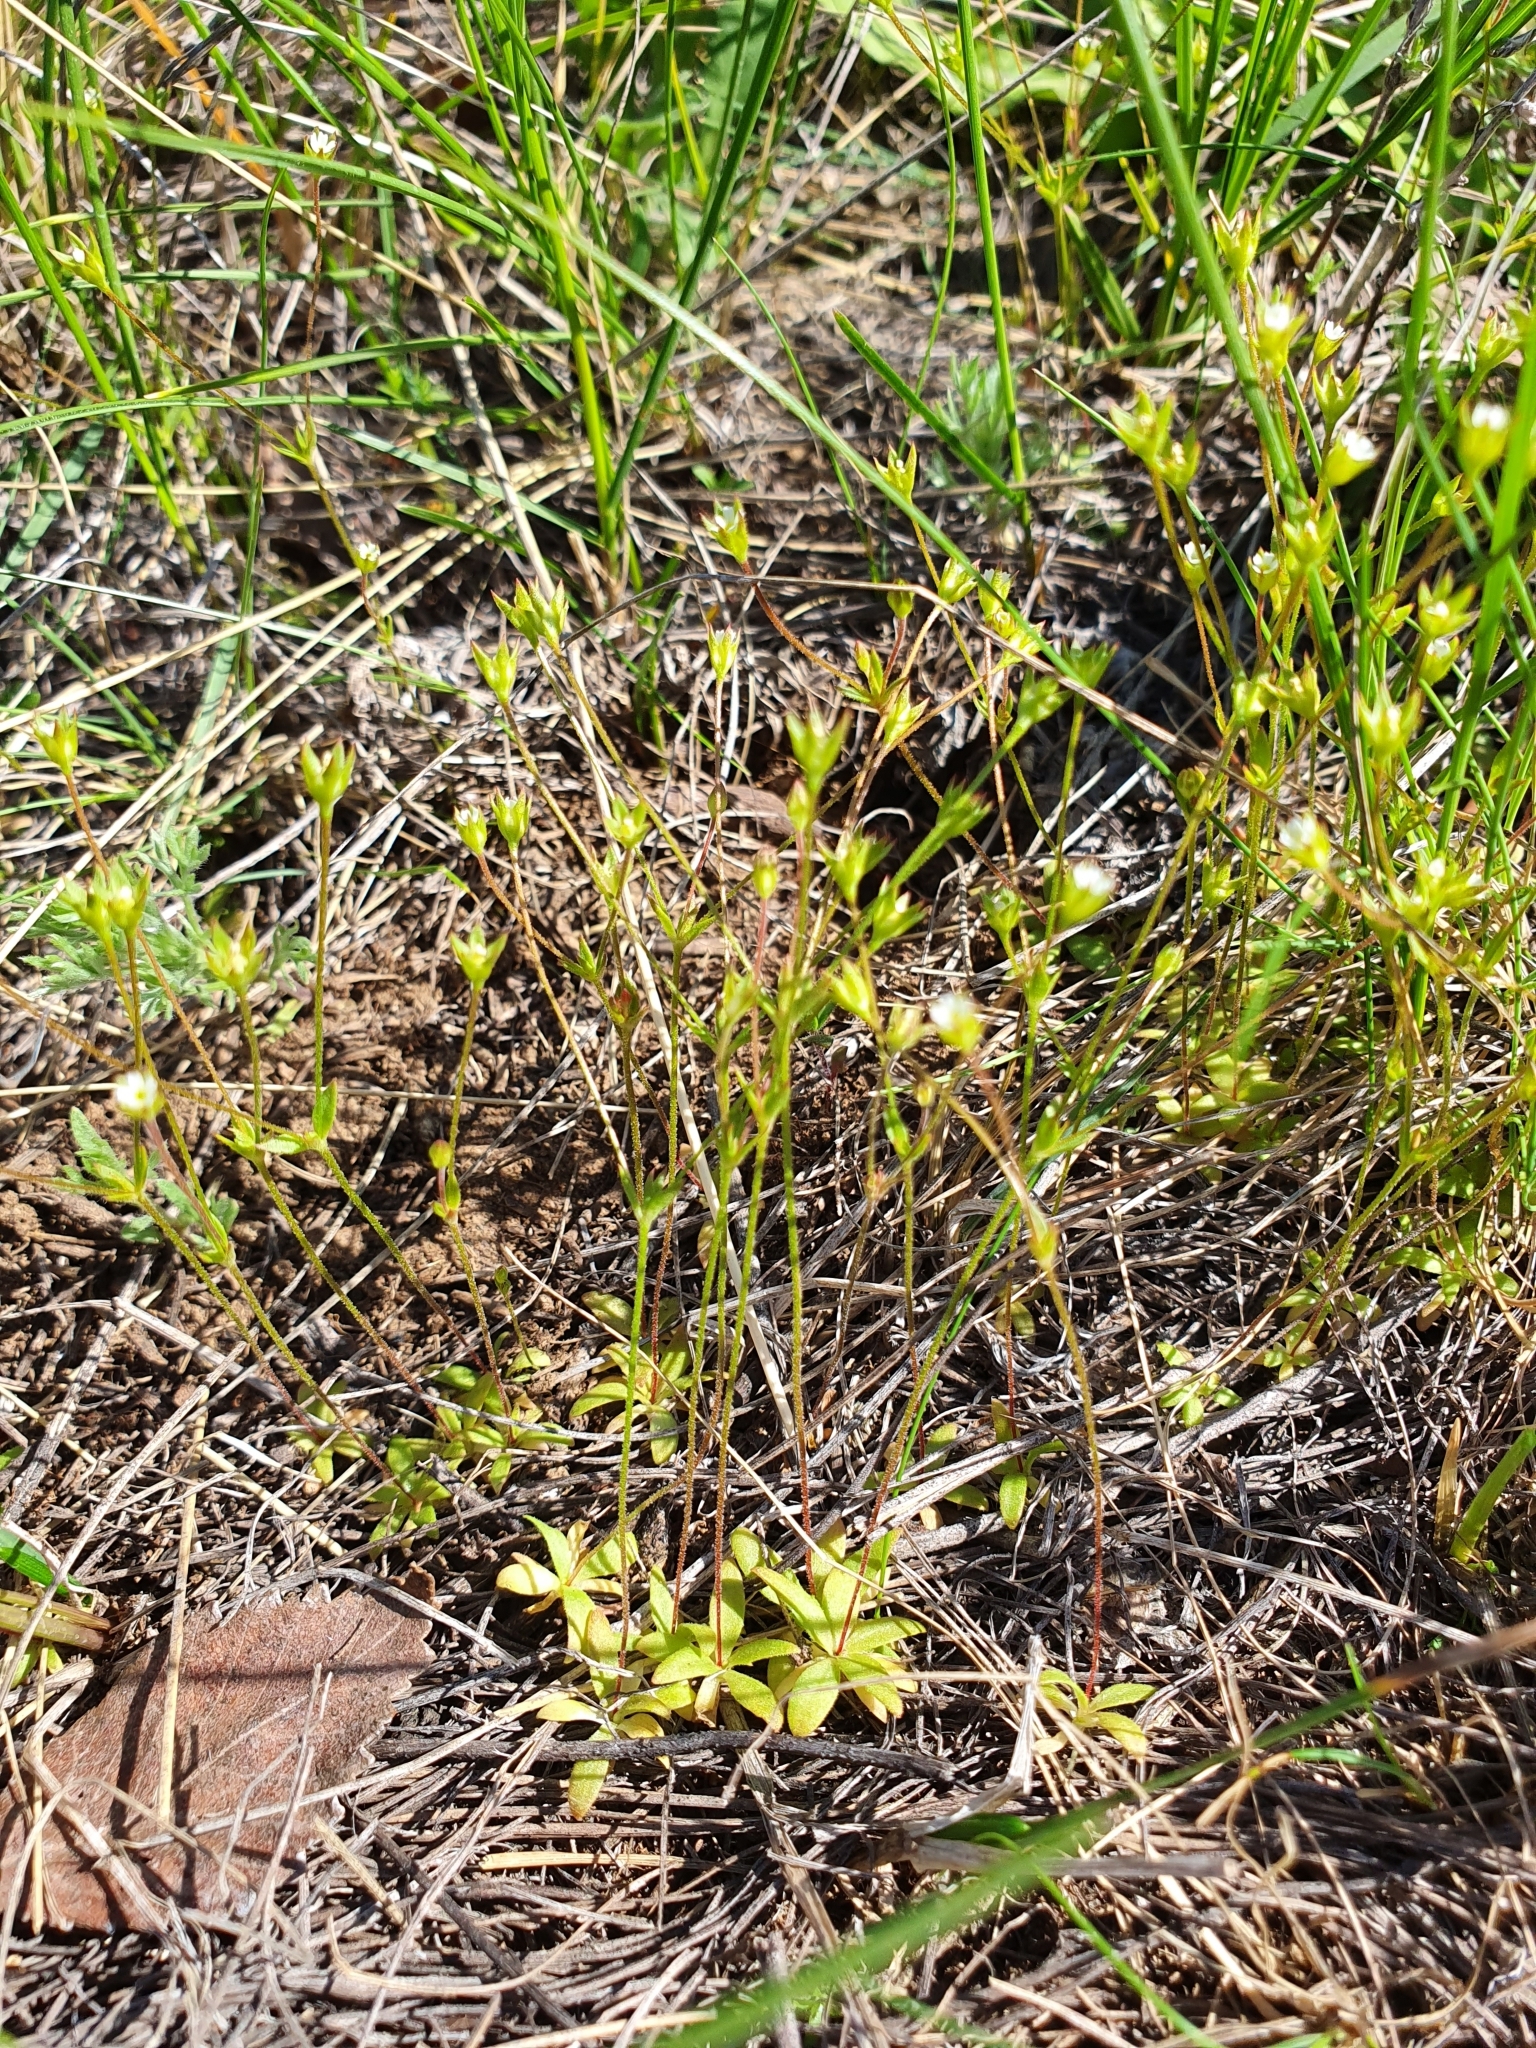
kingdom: Plantae
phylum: Tracheophyta
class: Magnoliopsida
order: Ericales
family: Primulaceae
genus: Androsace
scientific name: Androsace elongata
